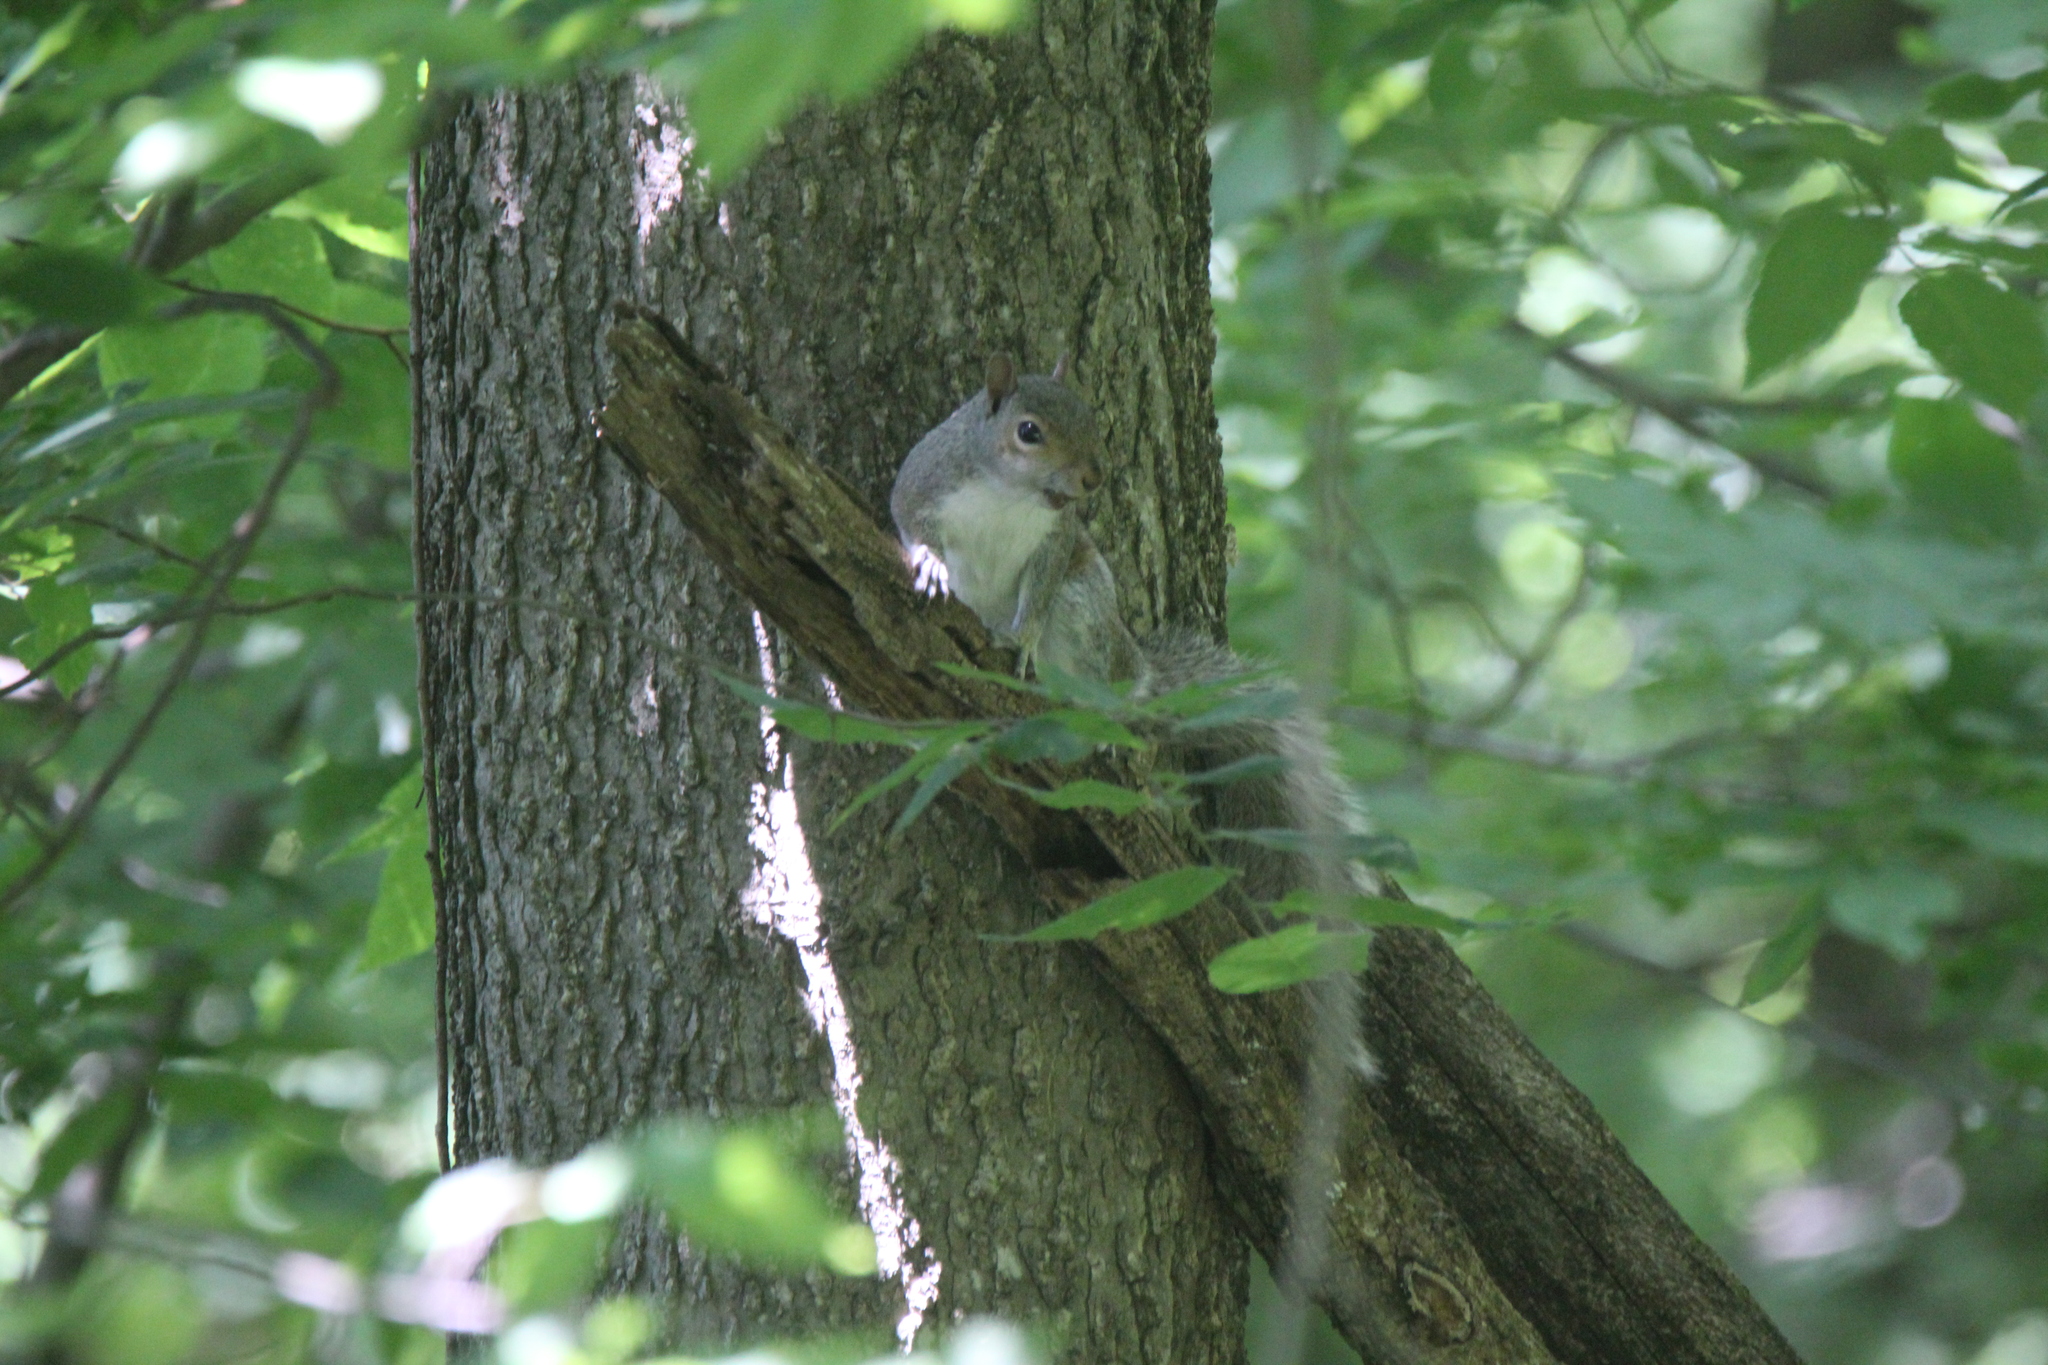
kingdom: Animalia
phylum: Chordata
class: Mammalia
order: Rodentia
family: Sciuridae
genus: Sciurus
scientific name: Sciurus carolinensis
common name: Eastern gray squirrel
